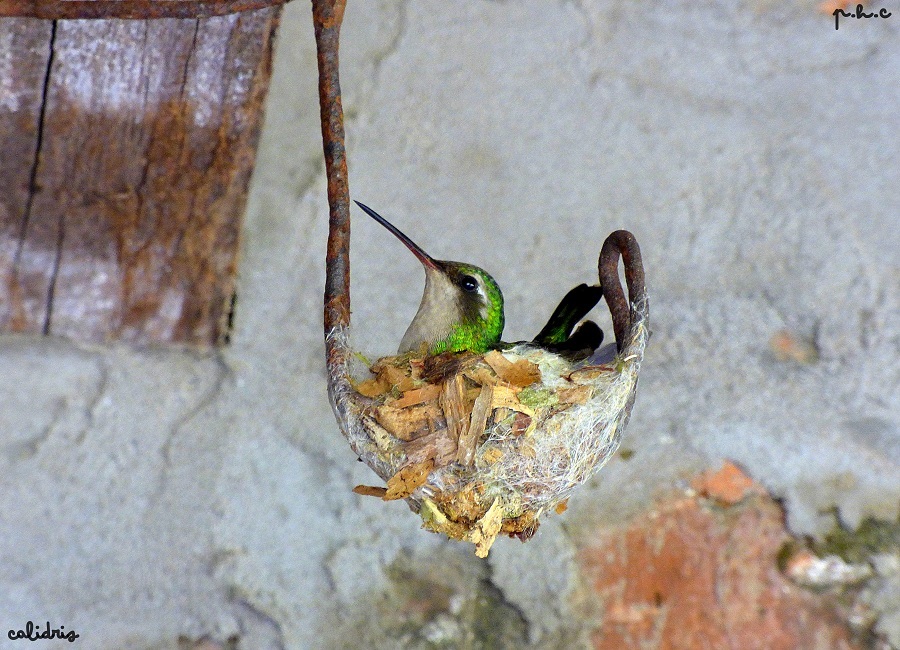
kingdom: Animalia
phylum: Chordata
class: Aves
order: Apodiformes
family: Trochilidae
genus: Chlorostilbon
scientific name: Chlorostilbon lucidus
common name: Glittering-bellied emerald
